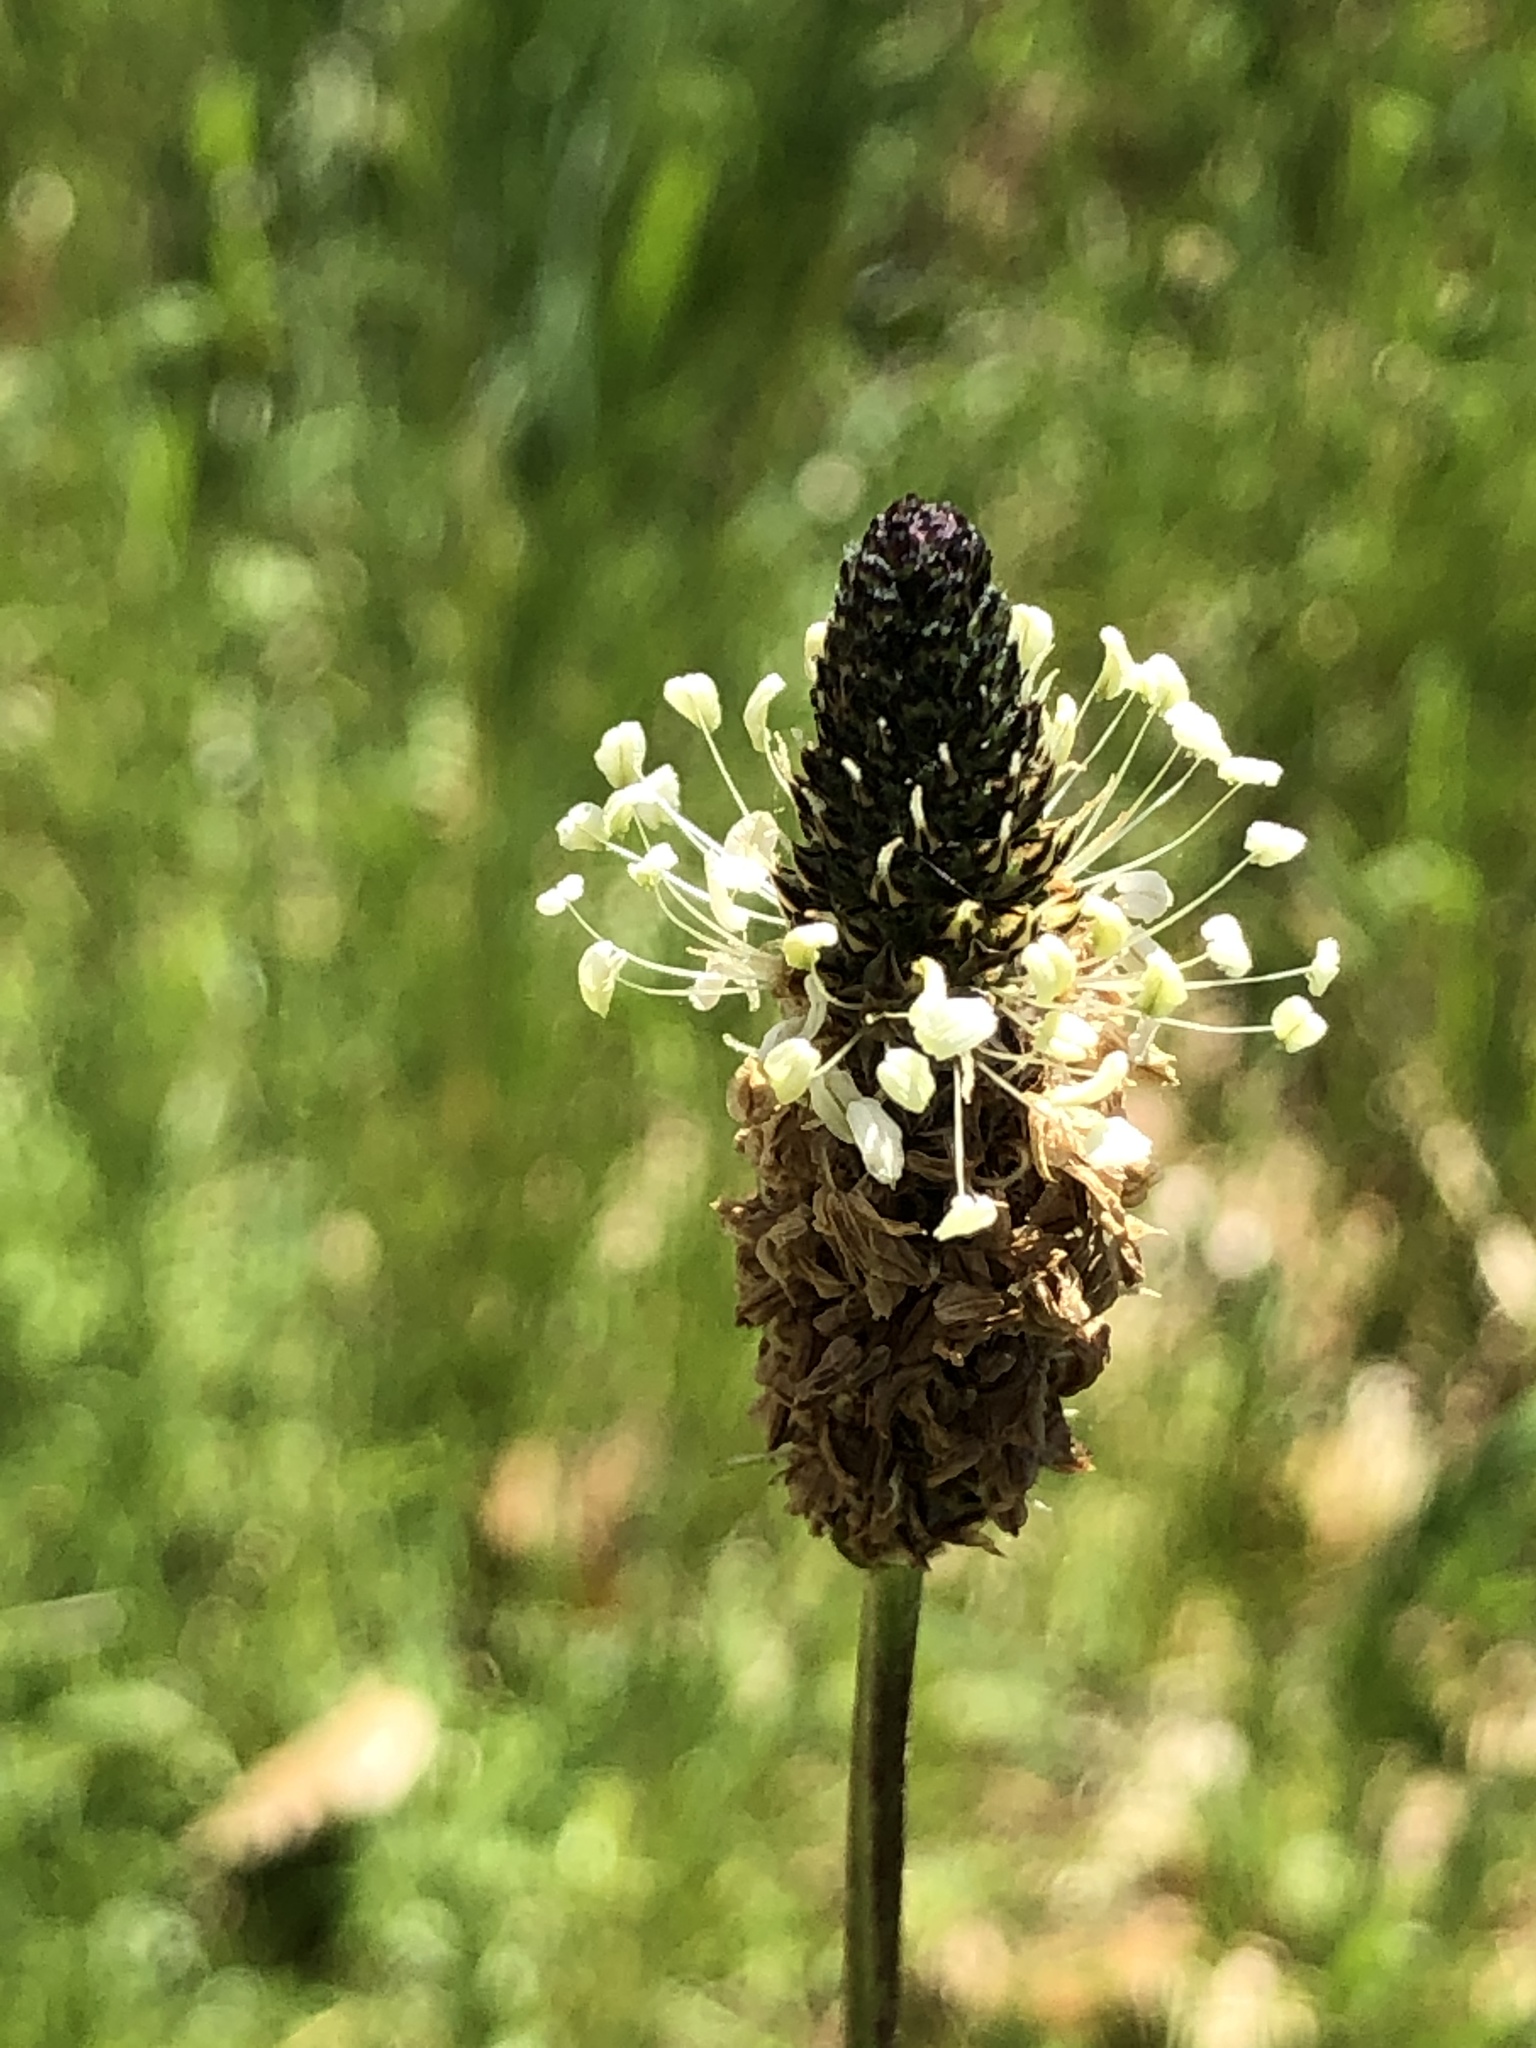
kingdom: Plantae
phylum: Tracheophyta
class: Magnoliopsida
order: Lamiales
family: Plantaginaceae
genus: Plantago
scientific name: Plantago lanceolata
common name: Ribwort plantain
